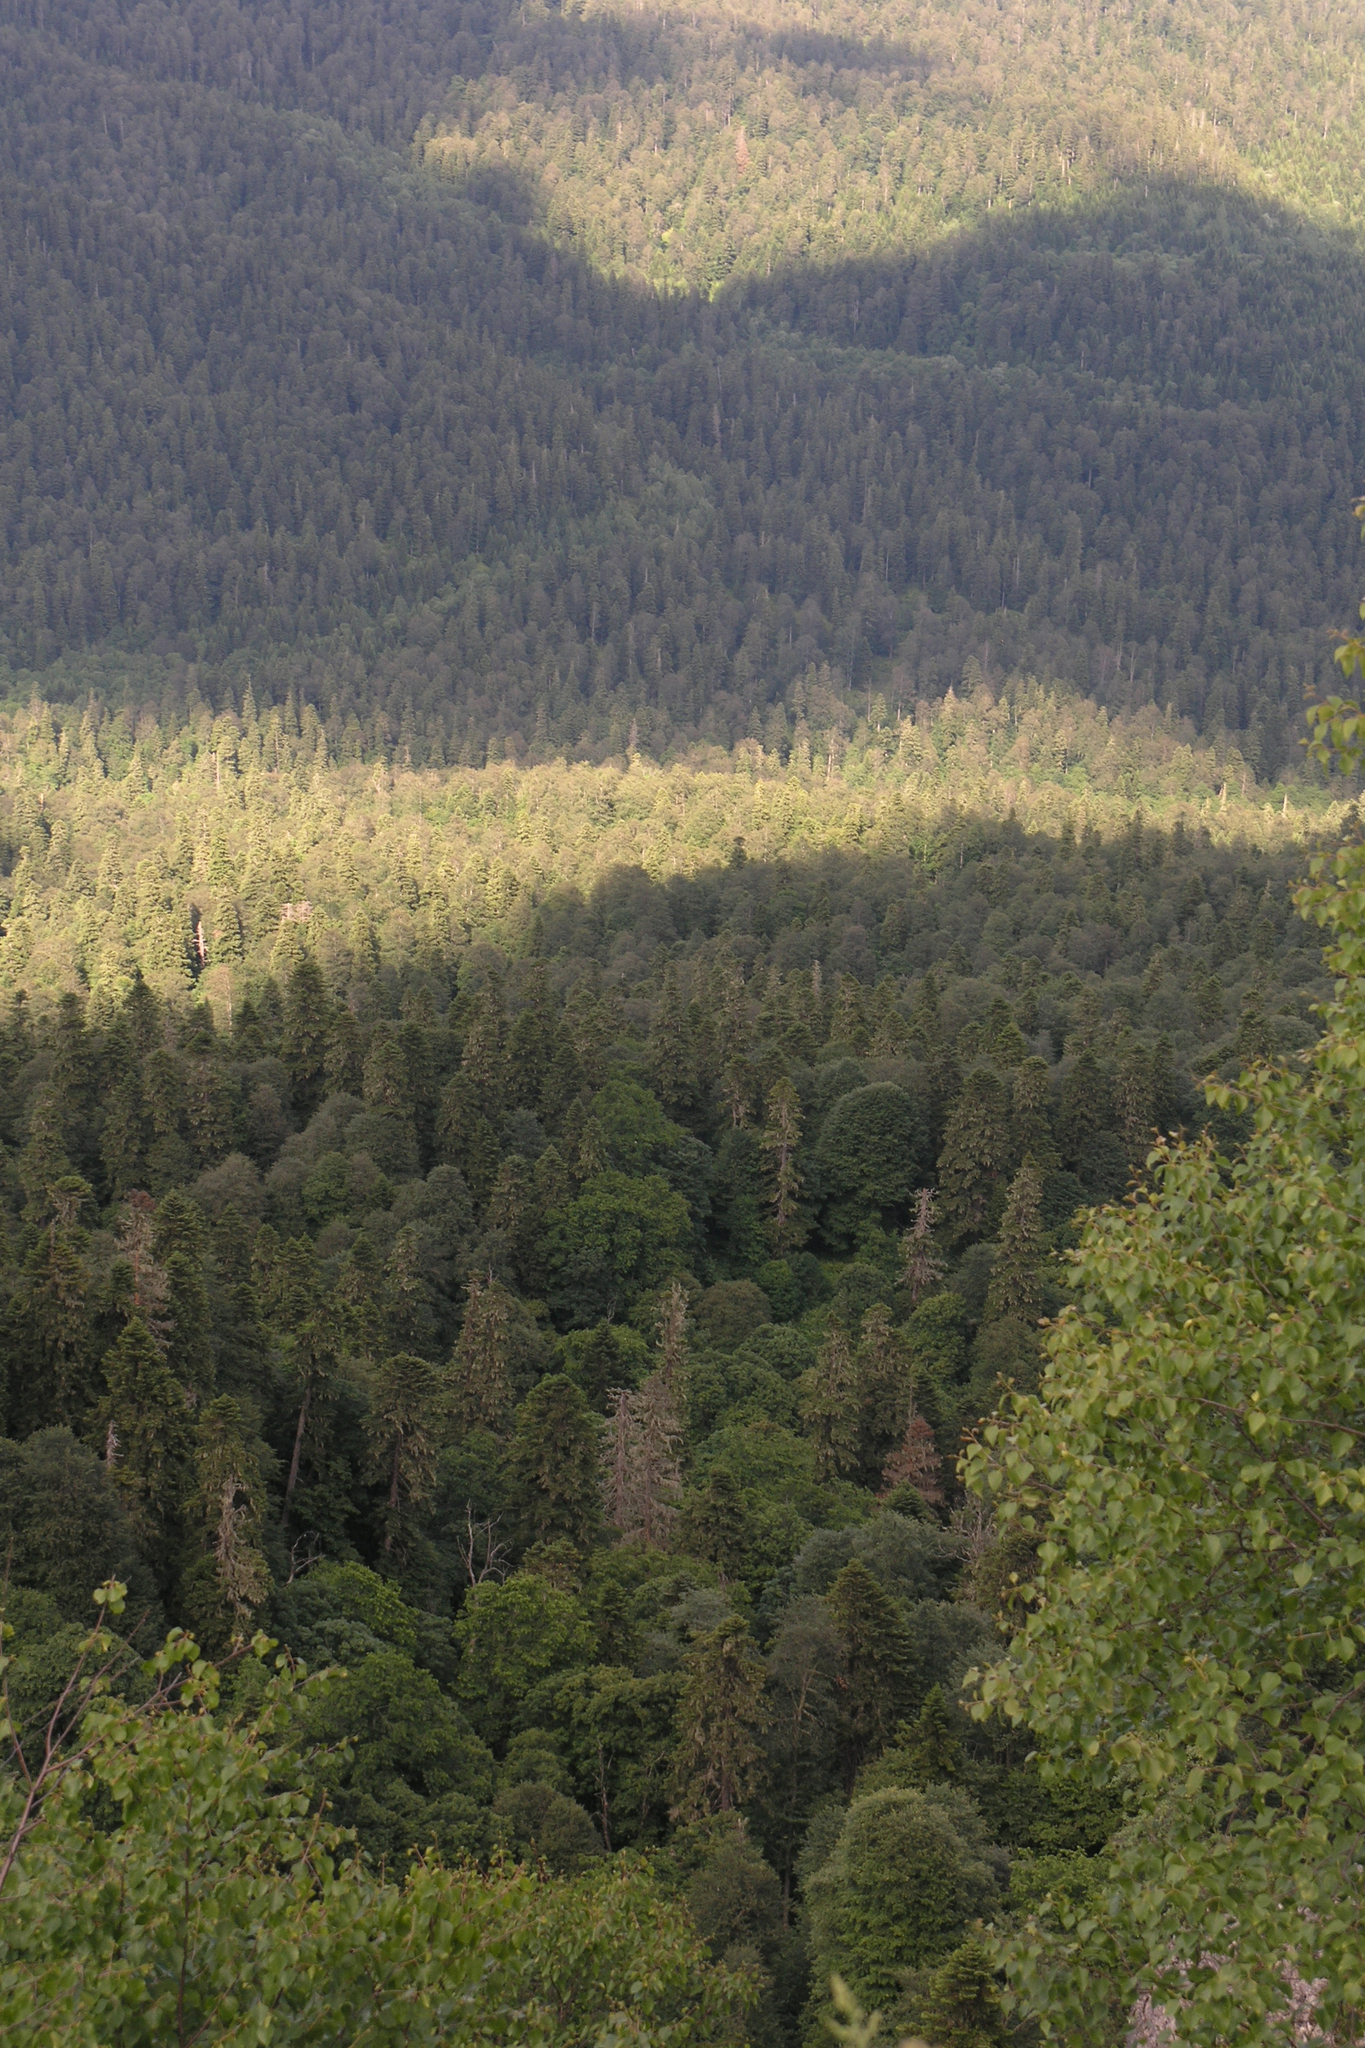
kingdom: Plantae
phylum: Tracheophyta
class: Pinopsida
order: Pinales
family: Pinaceae
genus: Pinus
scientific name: Pinus sylvestris
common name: Scots pine
